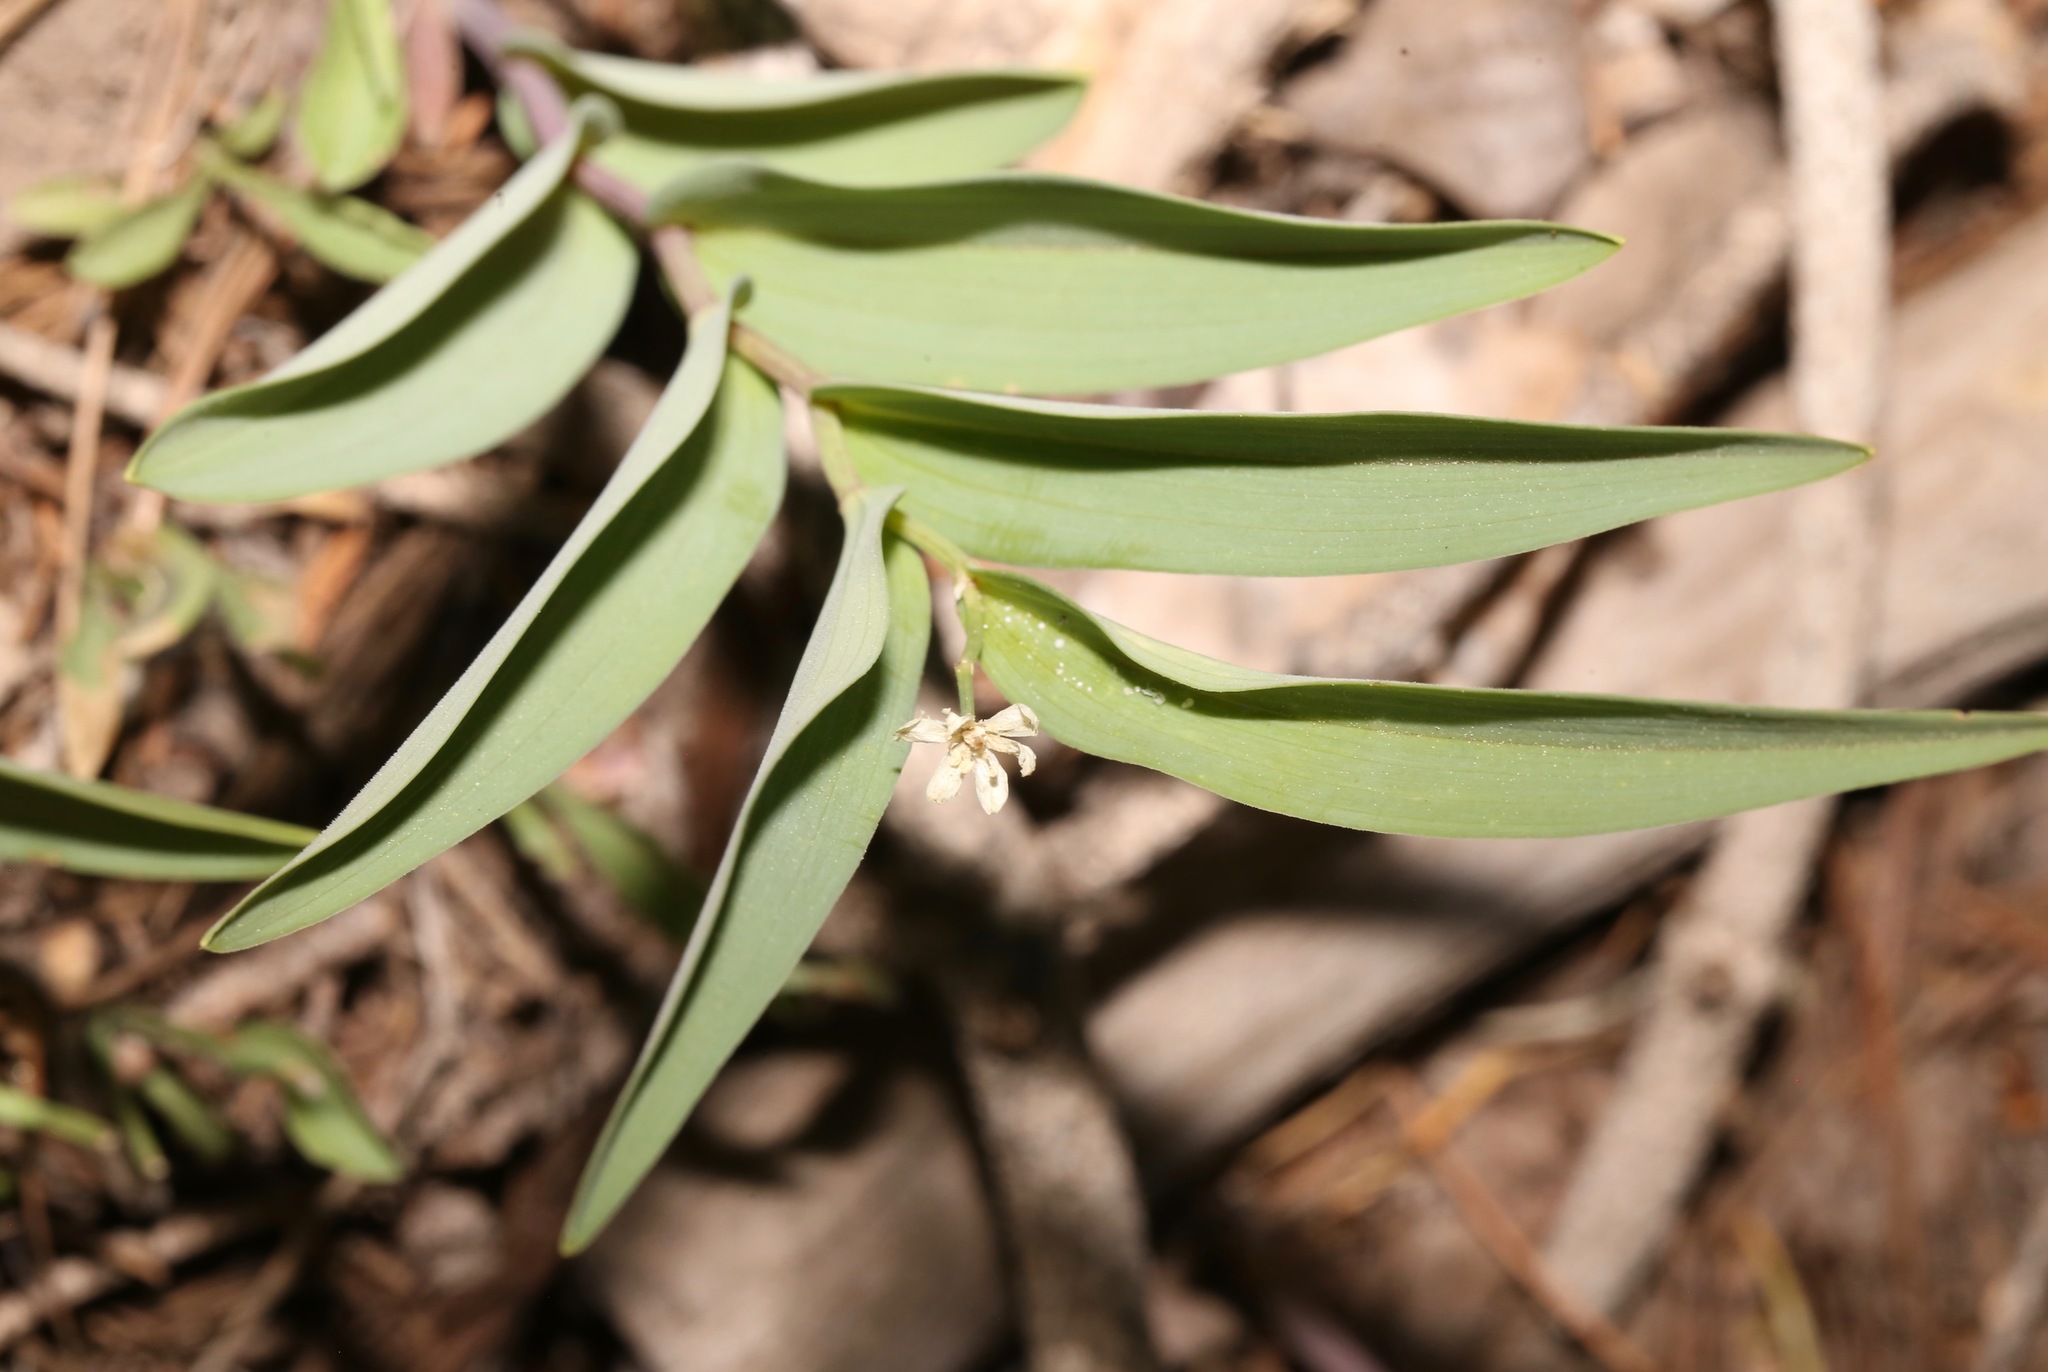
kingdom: Plantae
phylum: Tracheophyta
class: Liliopsida
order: Asparagales
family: Asparagaceae
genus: Maianthemum
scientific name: Maianthemum stellatum
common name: Little false solomon's seal
